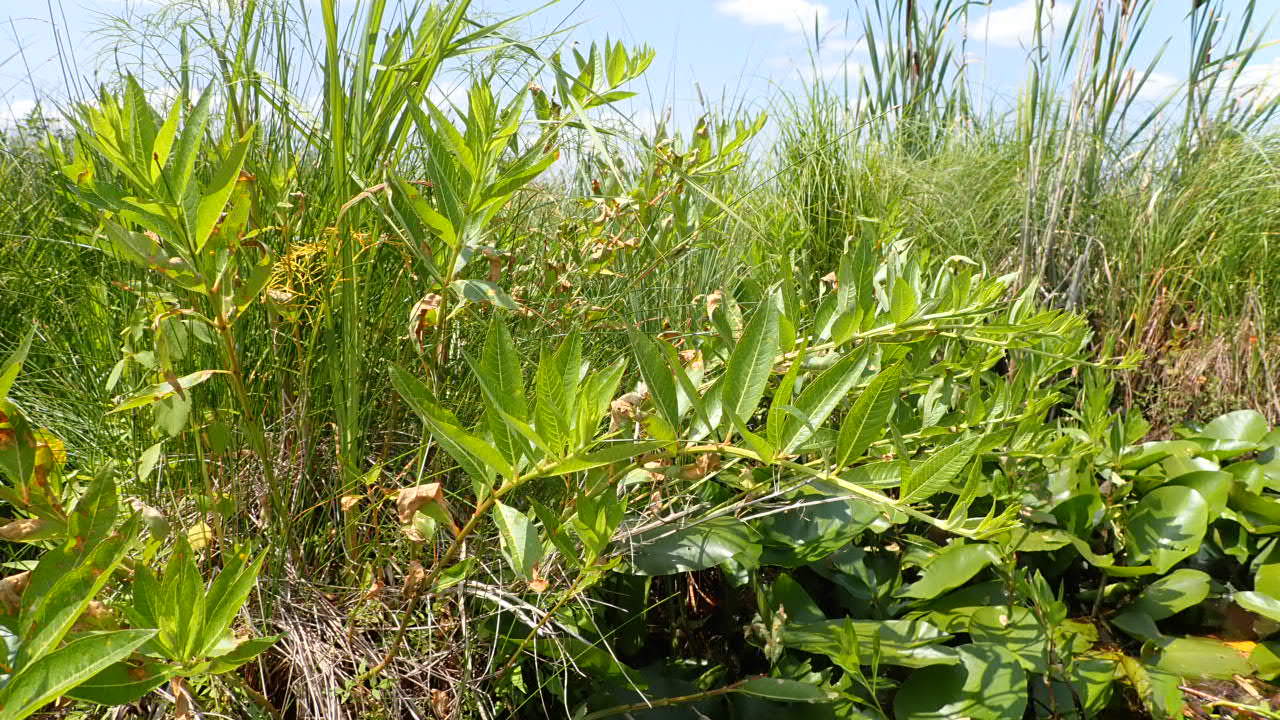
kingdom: Plantae
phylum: Tracheophyta
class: Magnoliopsida
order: Myrtales
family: Lythraceae
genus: Decodon
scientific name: Decodon verticillatus
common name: Hairy swamp loosestrife
